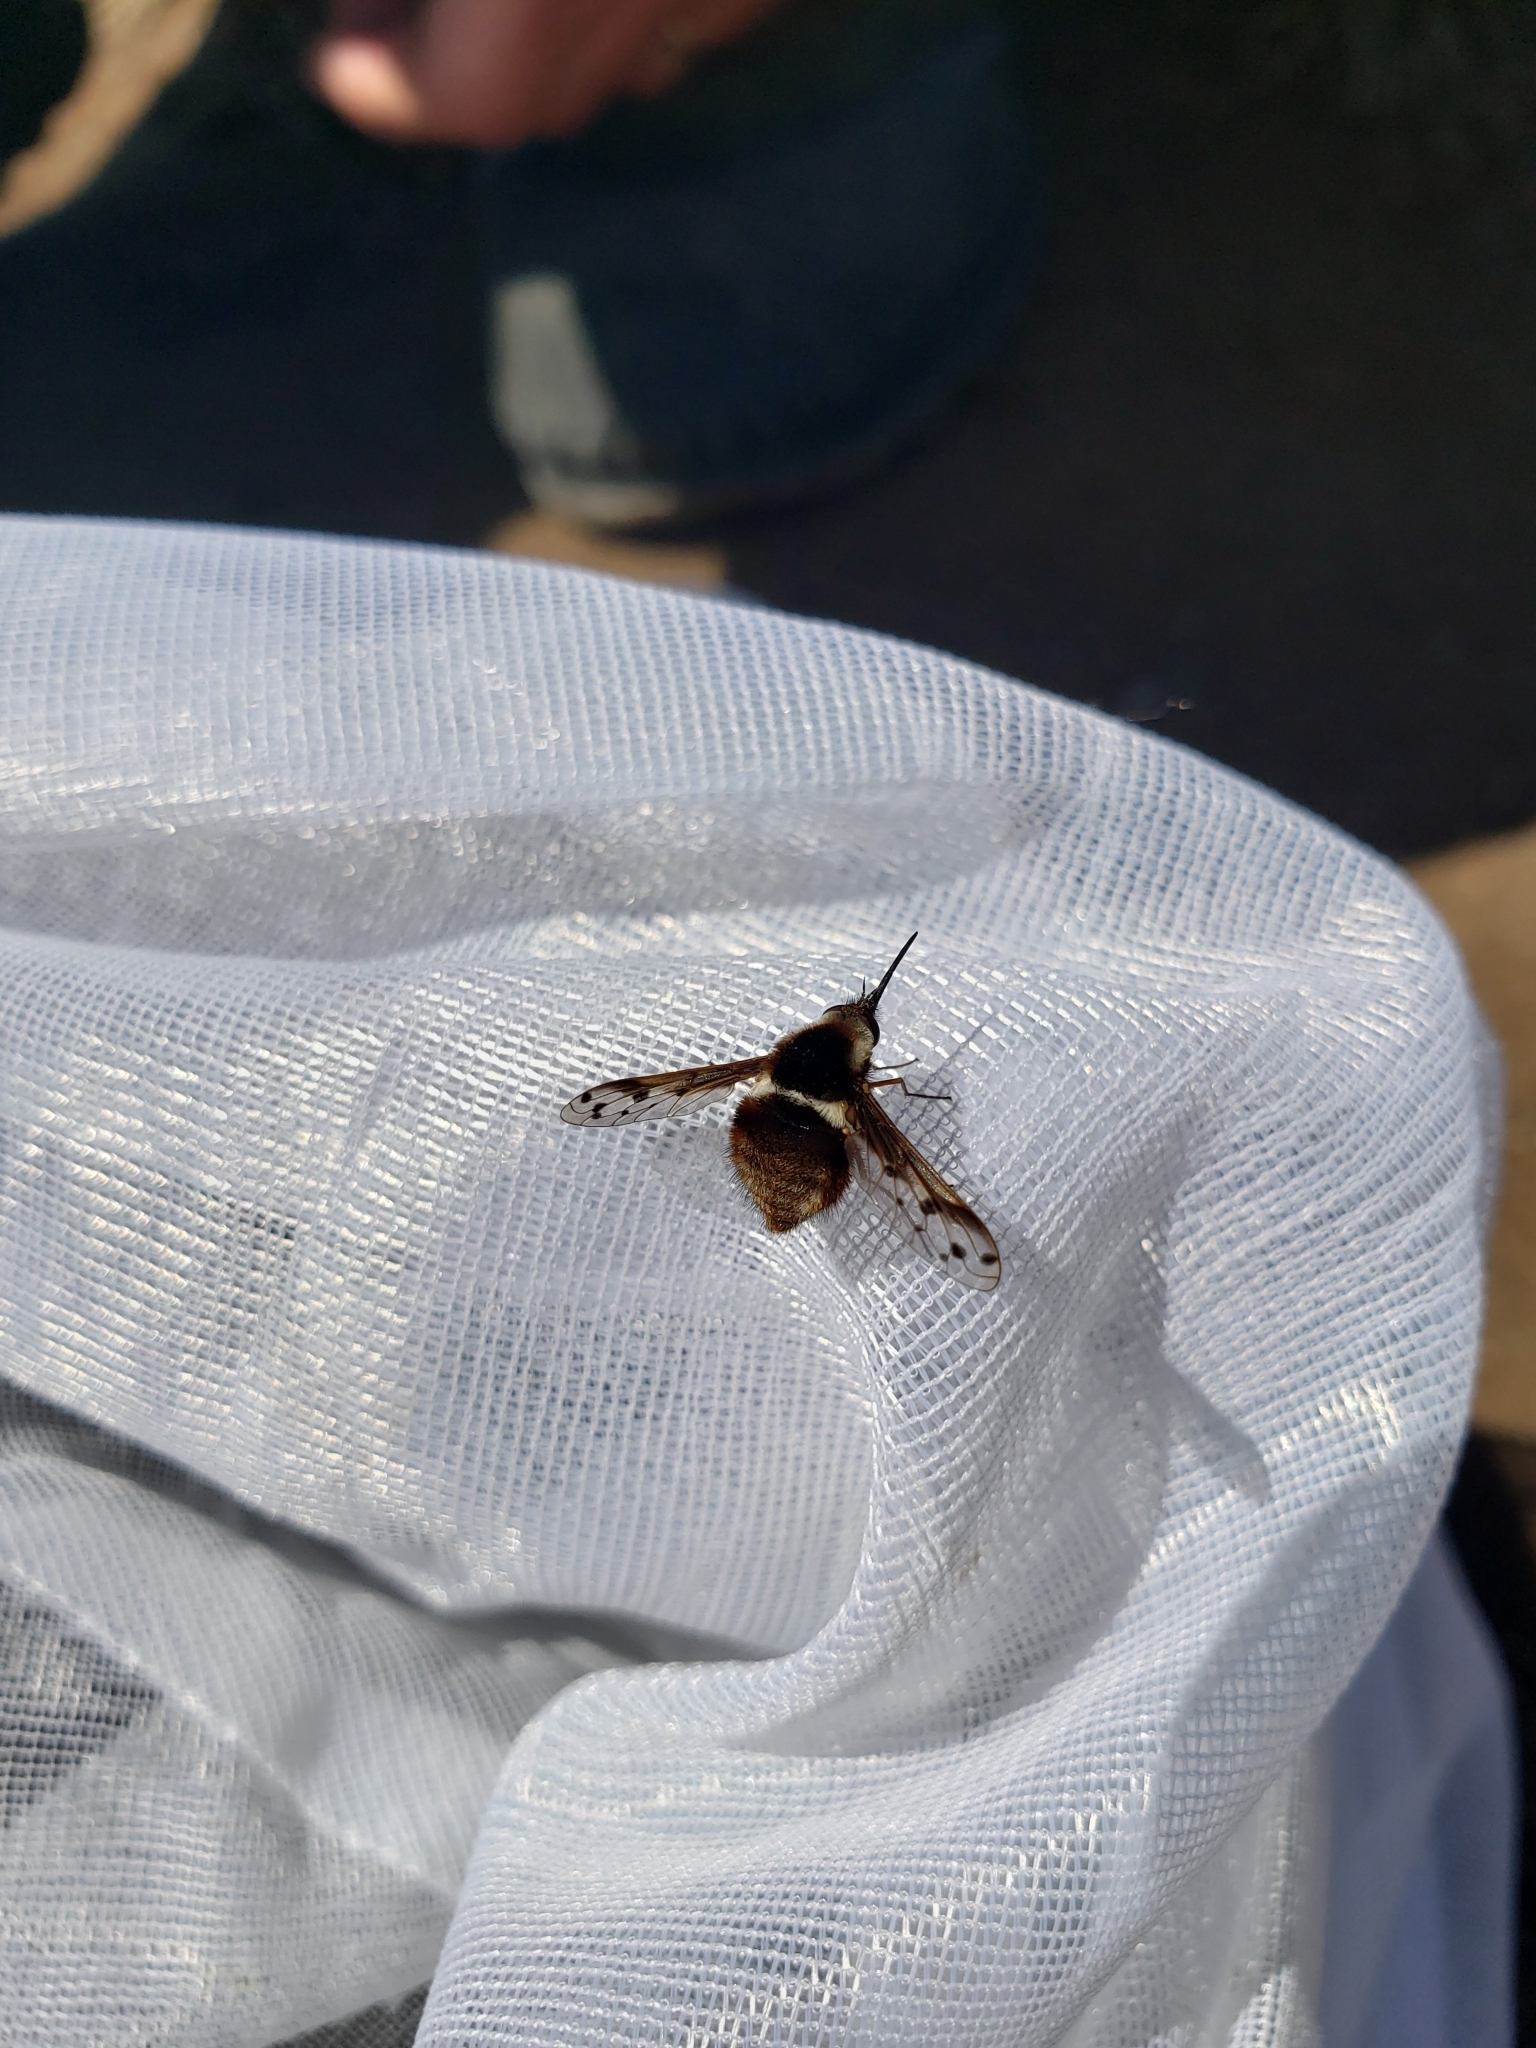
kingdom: Animalia
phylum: Arthropoda
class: Insecta
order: Diptera
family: Bombyliidae
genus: Bombylius
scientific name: Bombylius pygmaeus
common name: Pygmy bee fly
